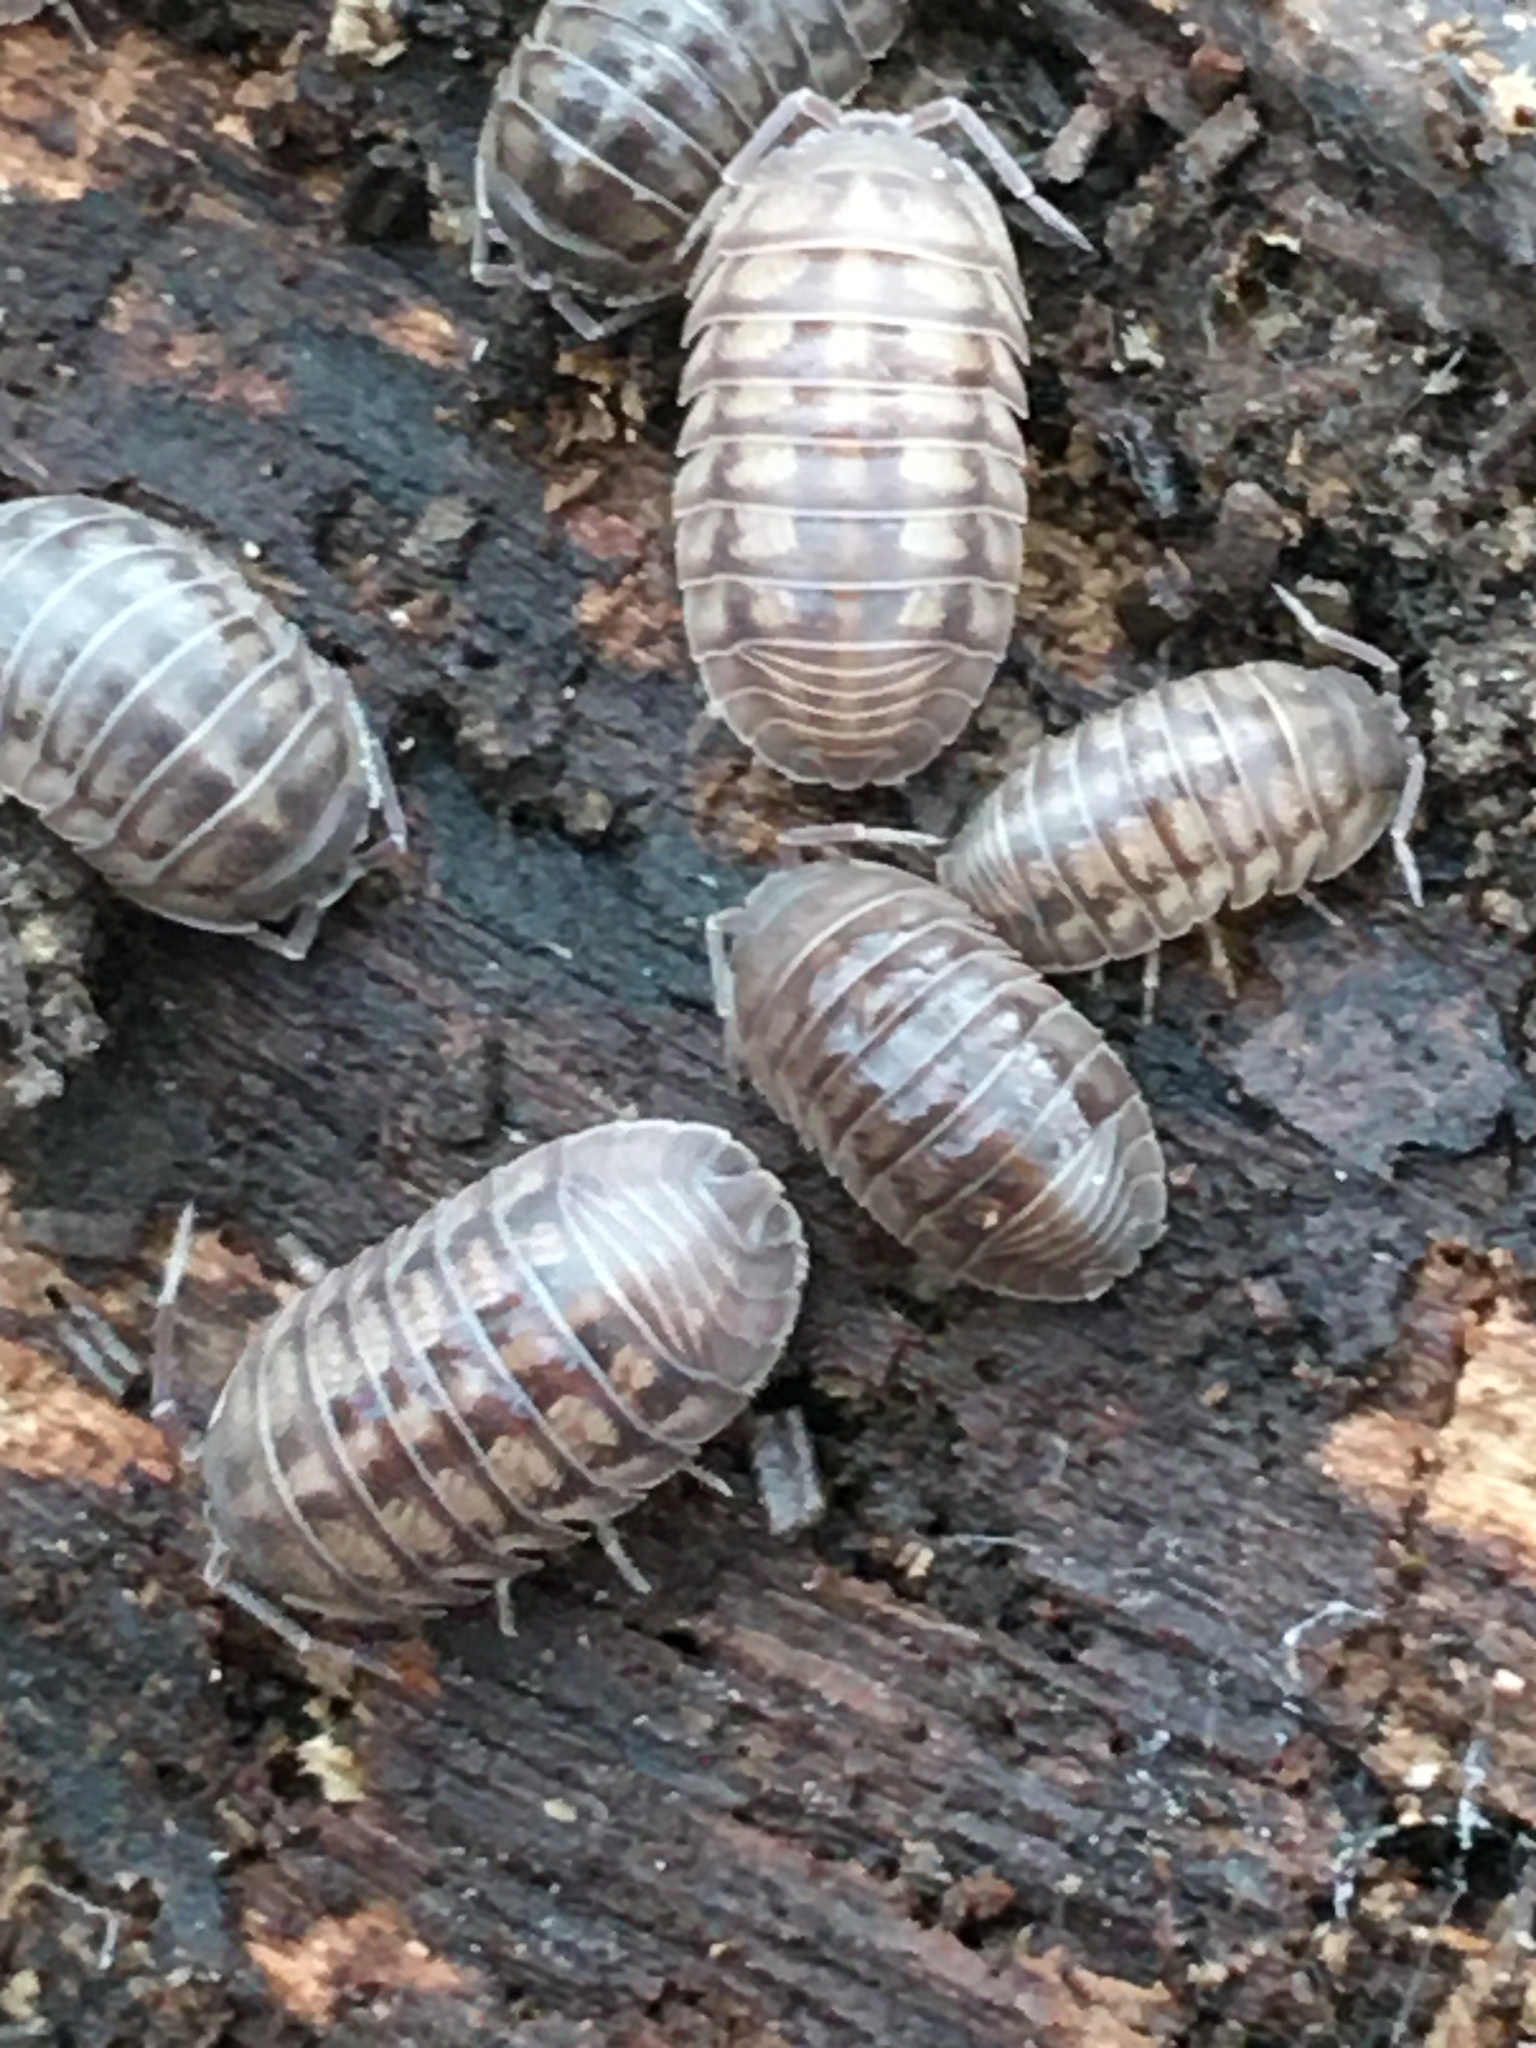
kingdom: Animalia
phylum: Arthropoda
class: Malacostraca
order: Isopoda
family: Armadillidiidae
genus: Armadillidium
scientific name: Armadillidium nasatum
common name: Isopod
